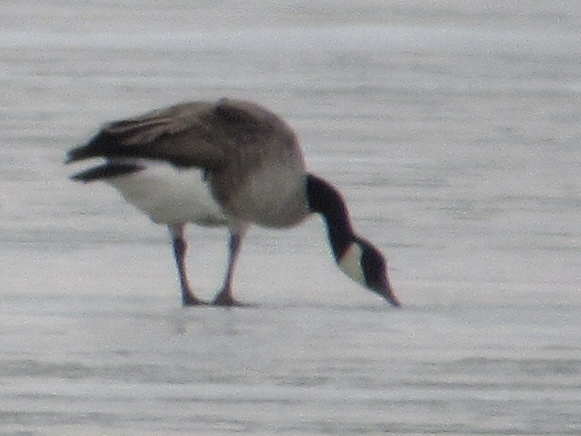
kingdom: Animalia
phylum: Chordata
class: Aves
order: Anseriformes
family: Anatidae
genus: Branta
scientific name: Branta canadensis
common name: Canada goose
